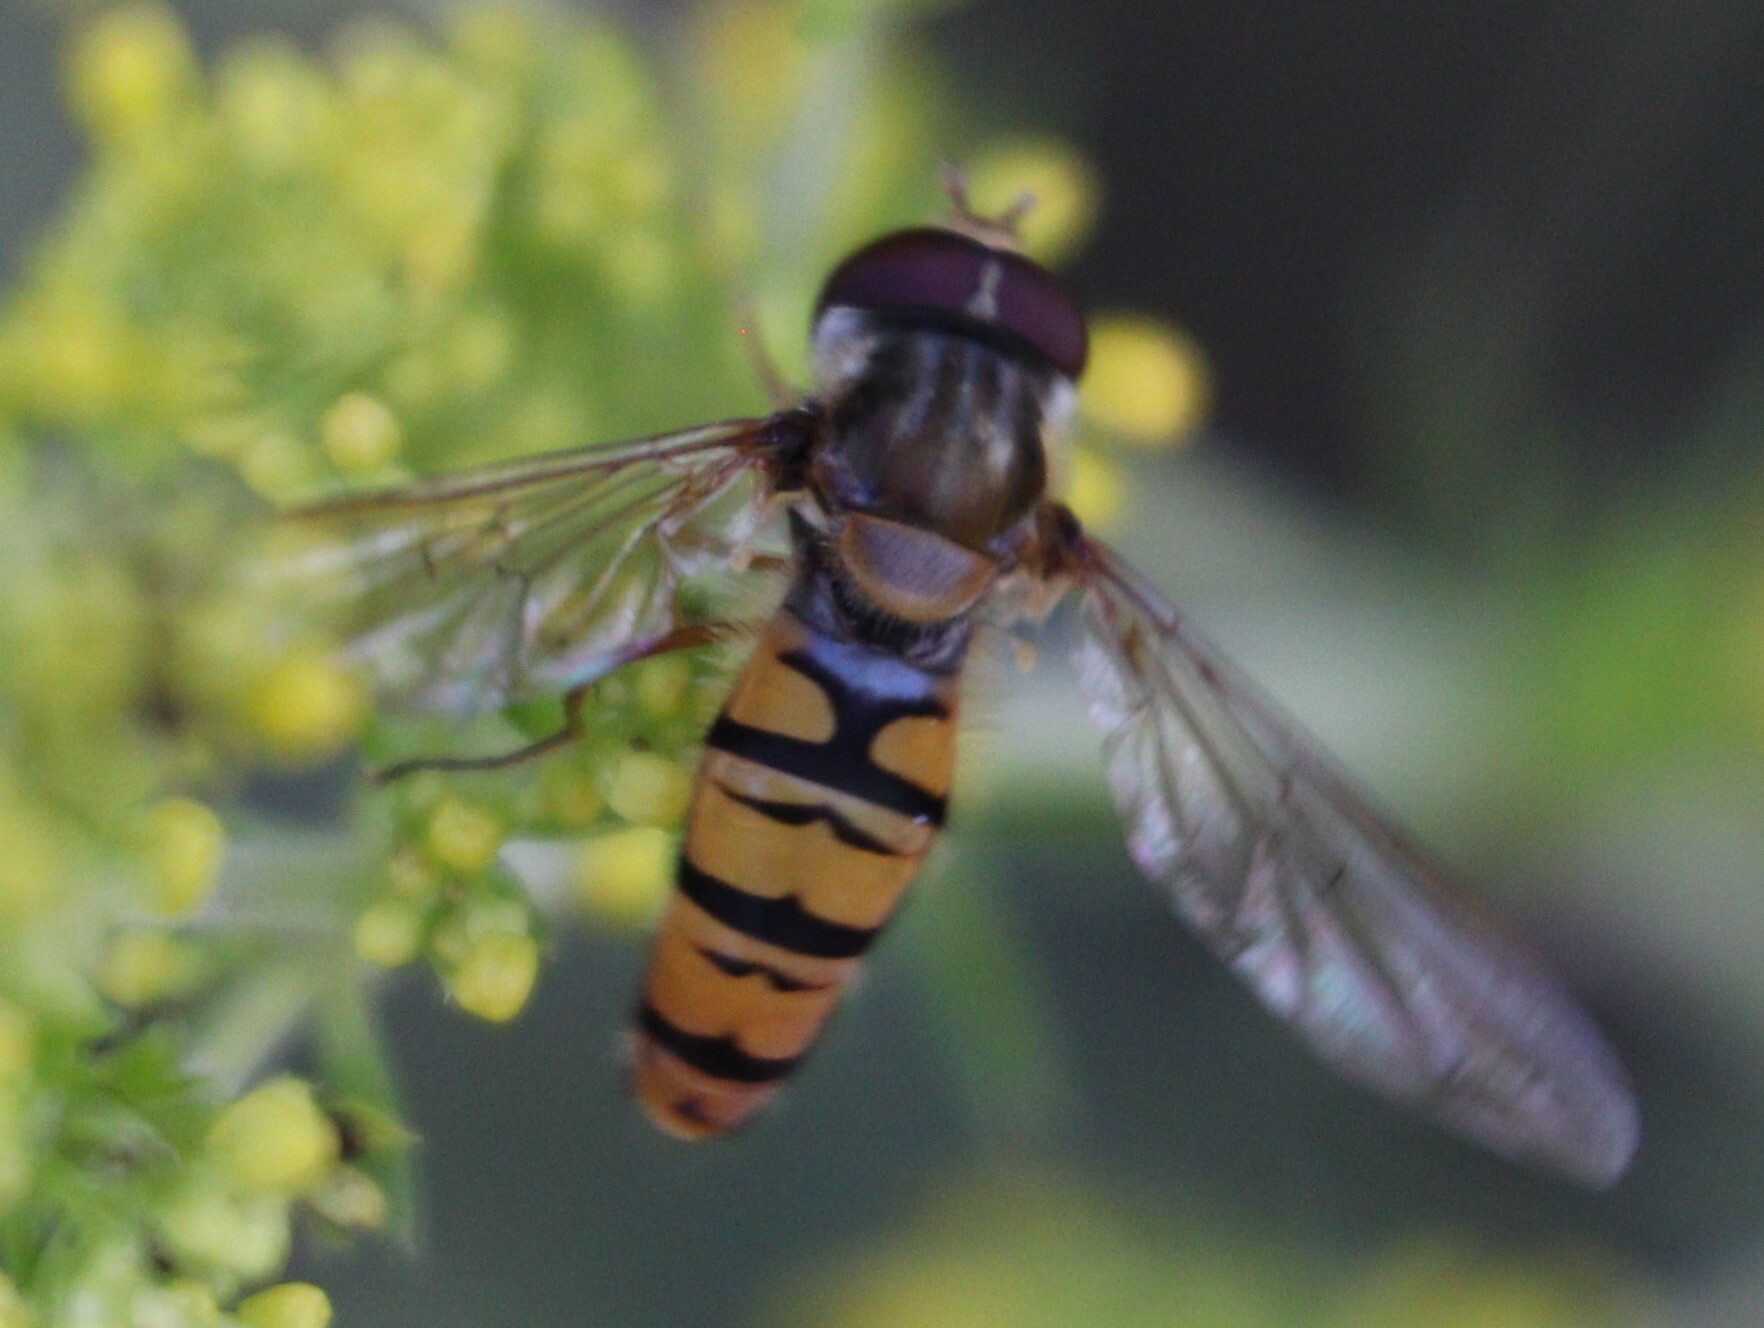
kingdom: Animalia
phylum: Arthropoda
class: Insecta
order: Diptera
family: Syrphidae
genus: Episyrphus
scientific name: Episyrphus balteatus
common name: Marmalade hoverfly
